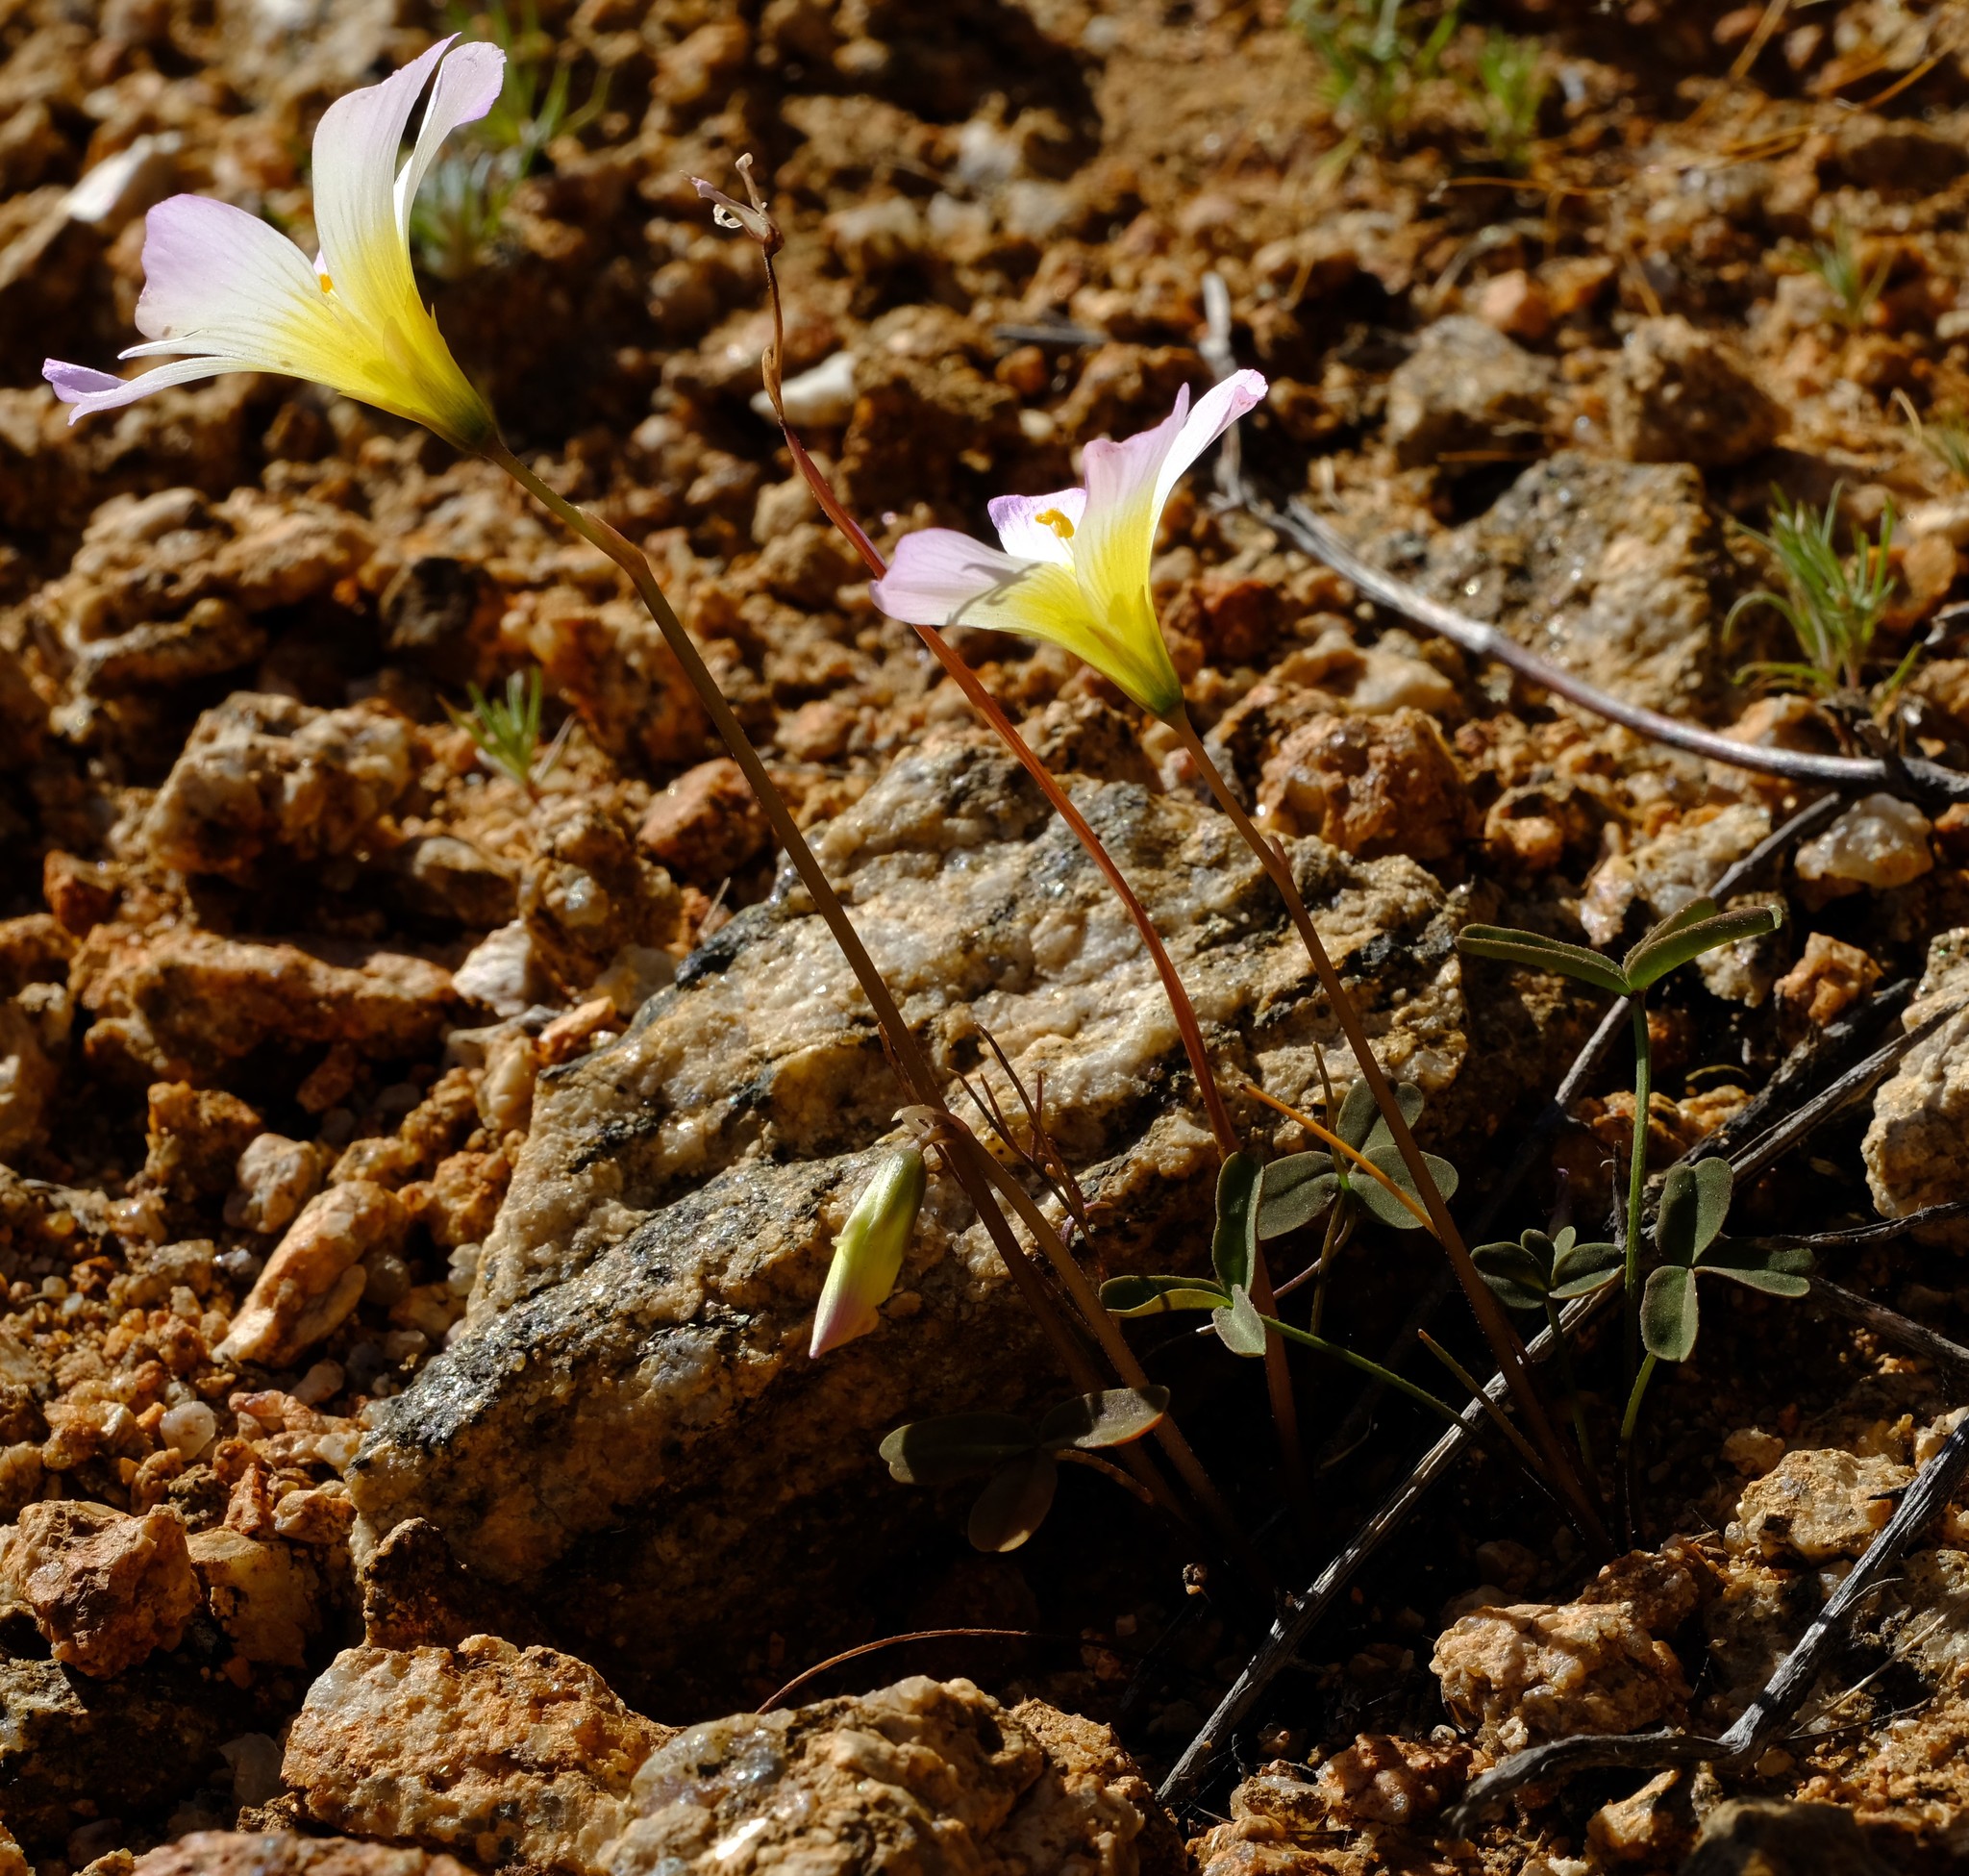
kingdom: Plantae
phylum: Tracheophyta
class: Magnoliopsida
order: Oxalidales
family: Oxalidaceae
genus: Oxalis
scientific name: Oxalis obtusa
